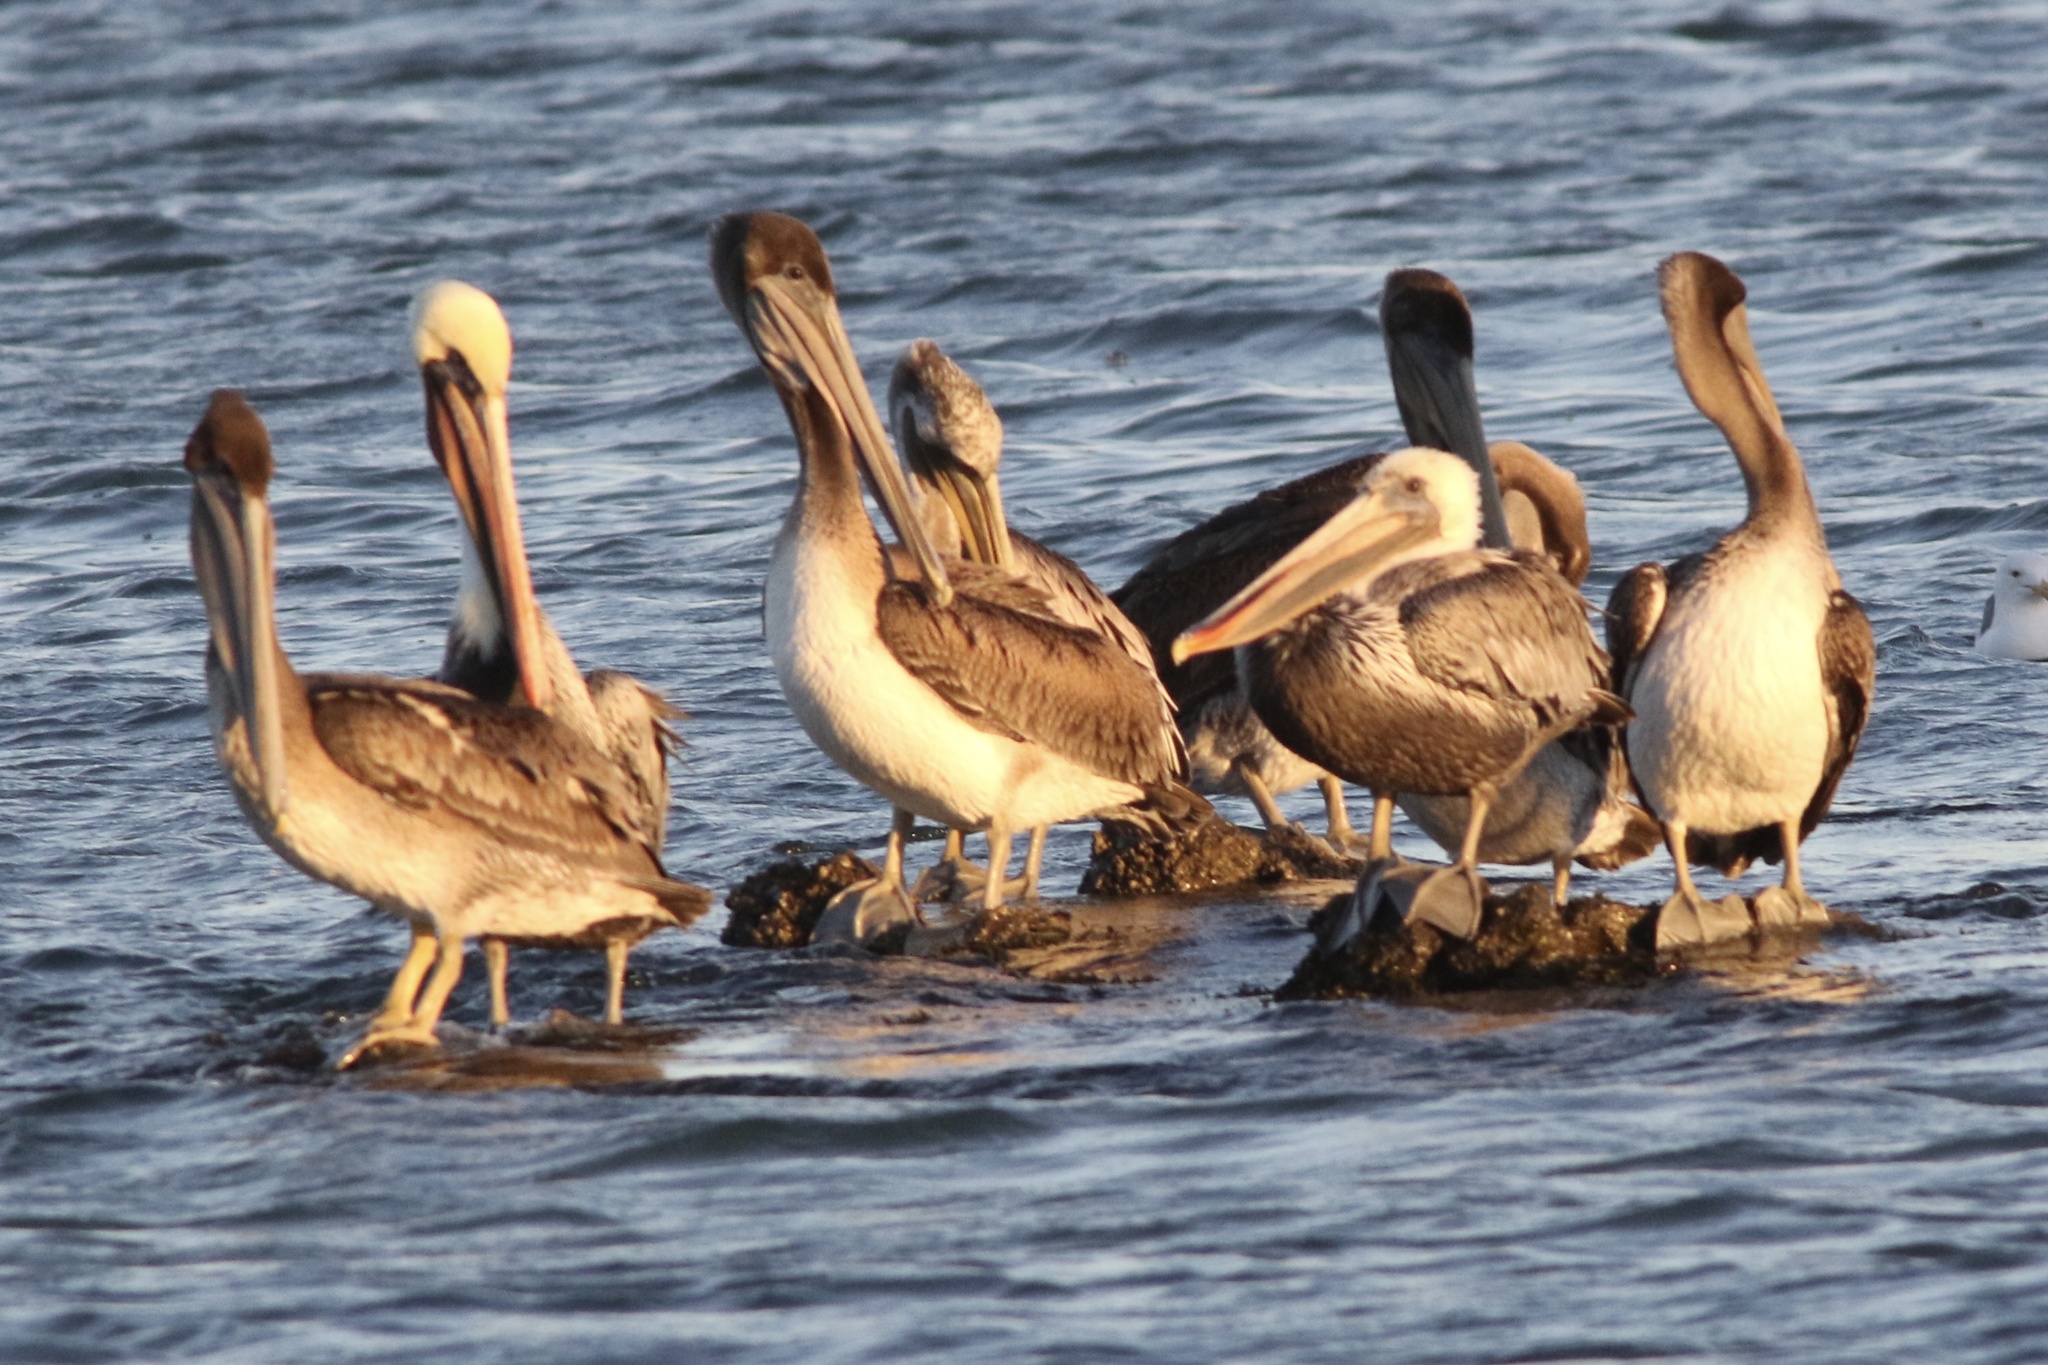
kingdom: Animalia
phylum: Chordata
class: Aves
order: Pelecaniformes
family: Pelecanidae
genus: Pelecanus
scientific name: Pelecanus occidentalis
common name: Brown pelican
